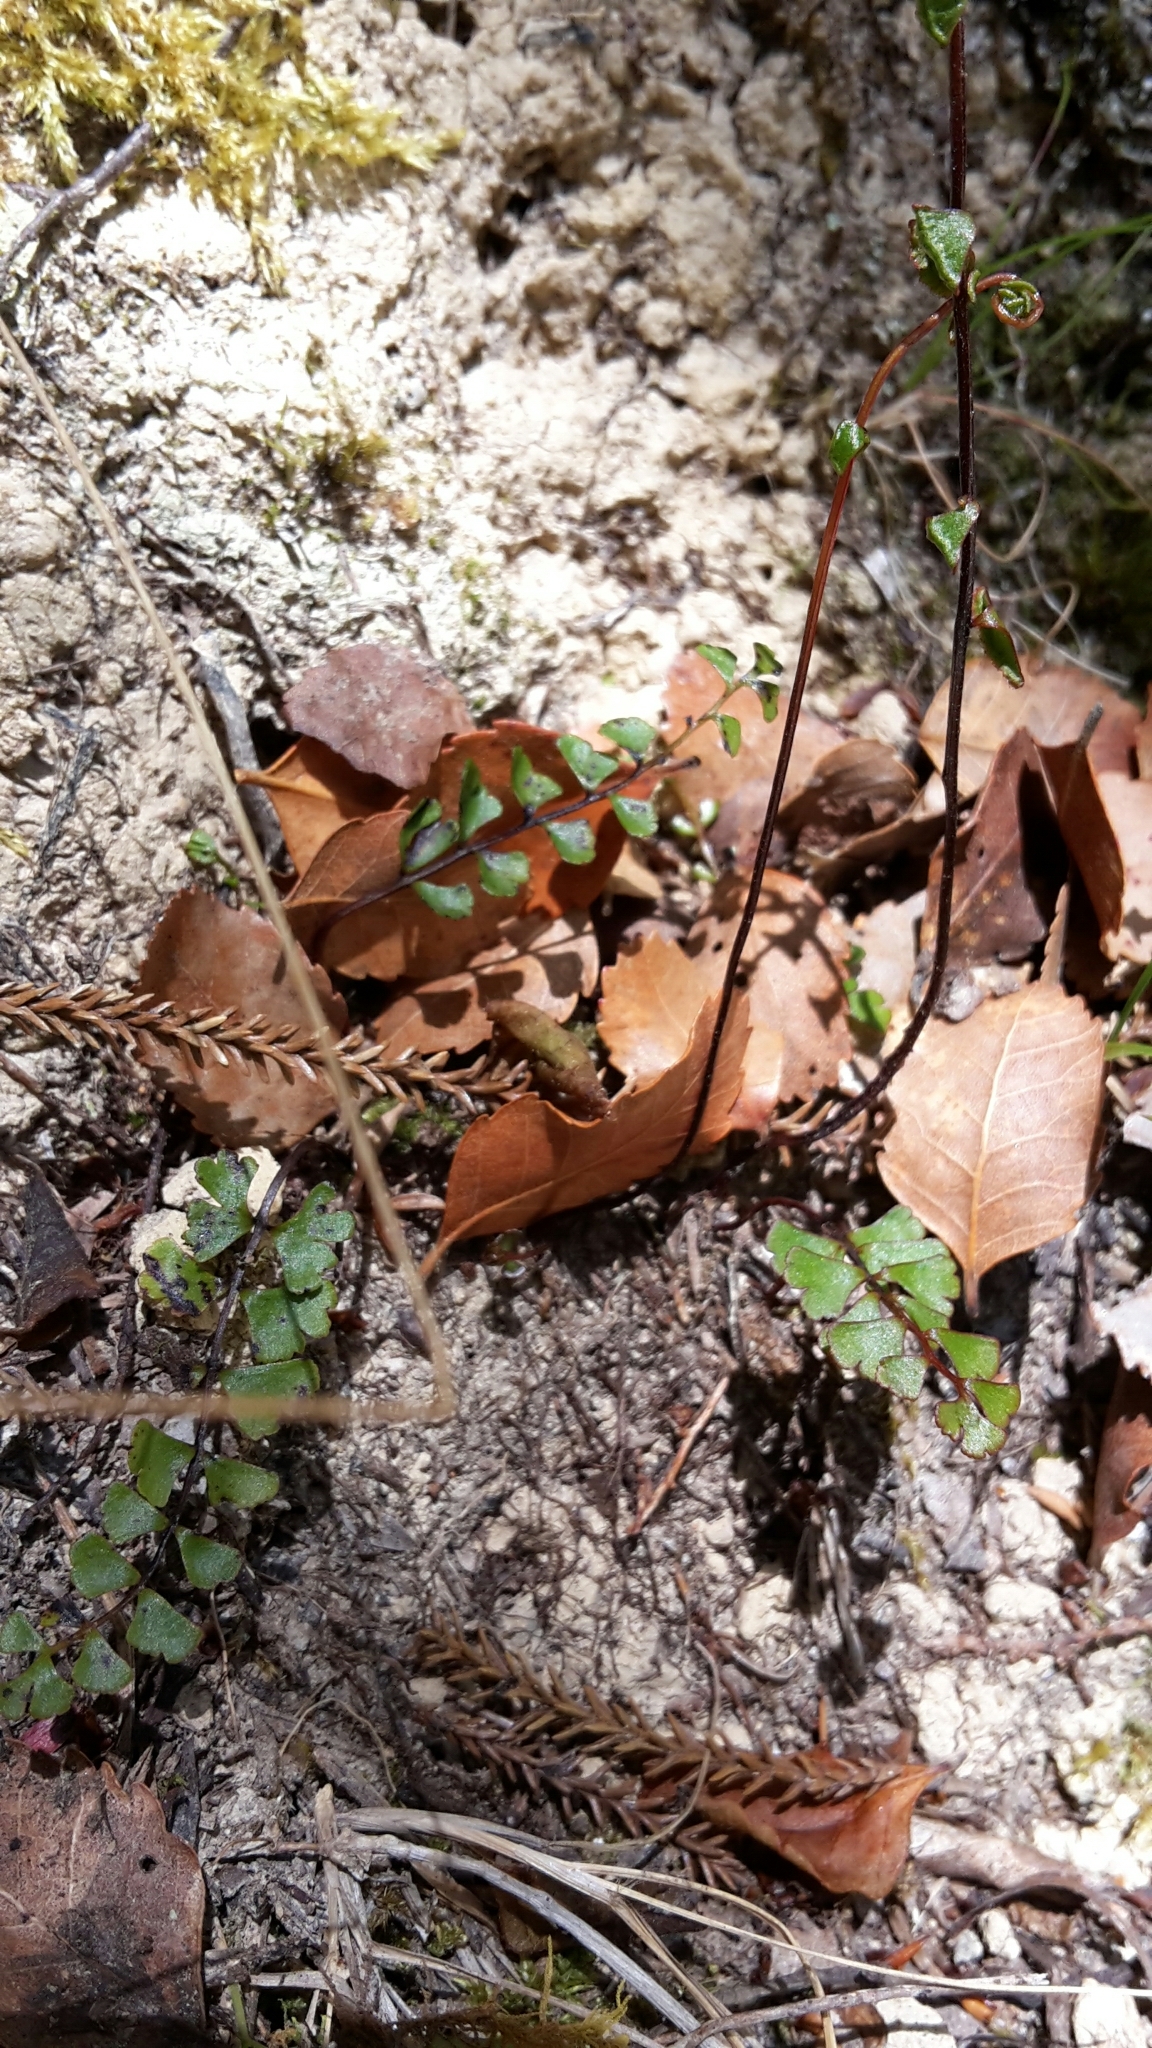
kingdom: Plantae
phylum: Tracheophyta
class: Polypodiopsida
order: Polypodiales
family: Lindsaeaceae
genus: Lindsaea
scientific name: Lindsaea linearis
